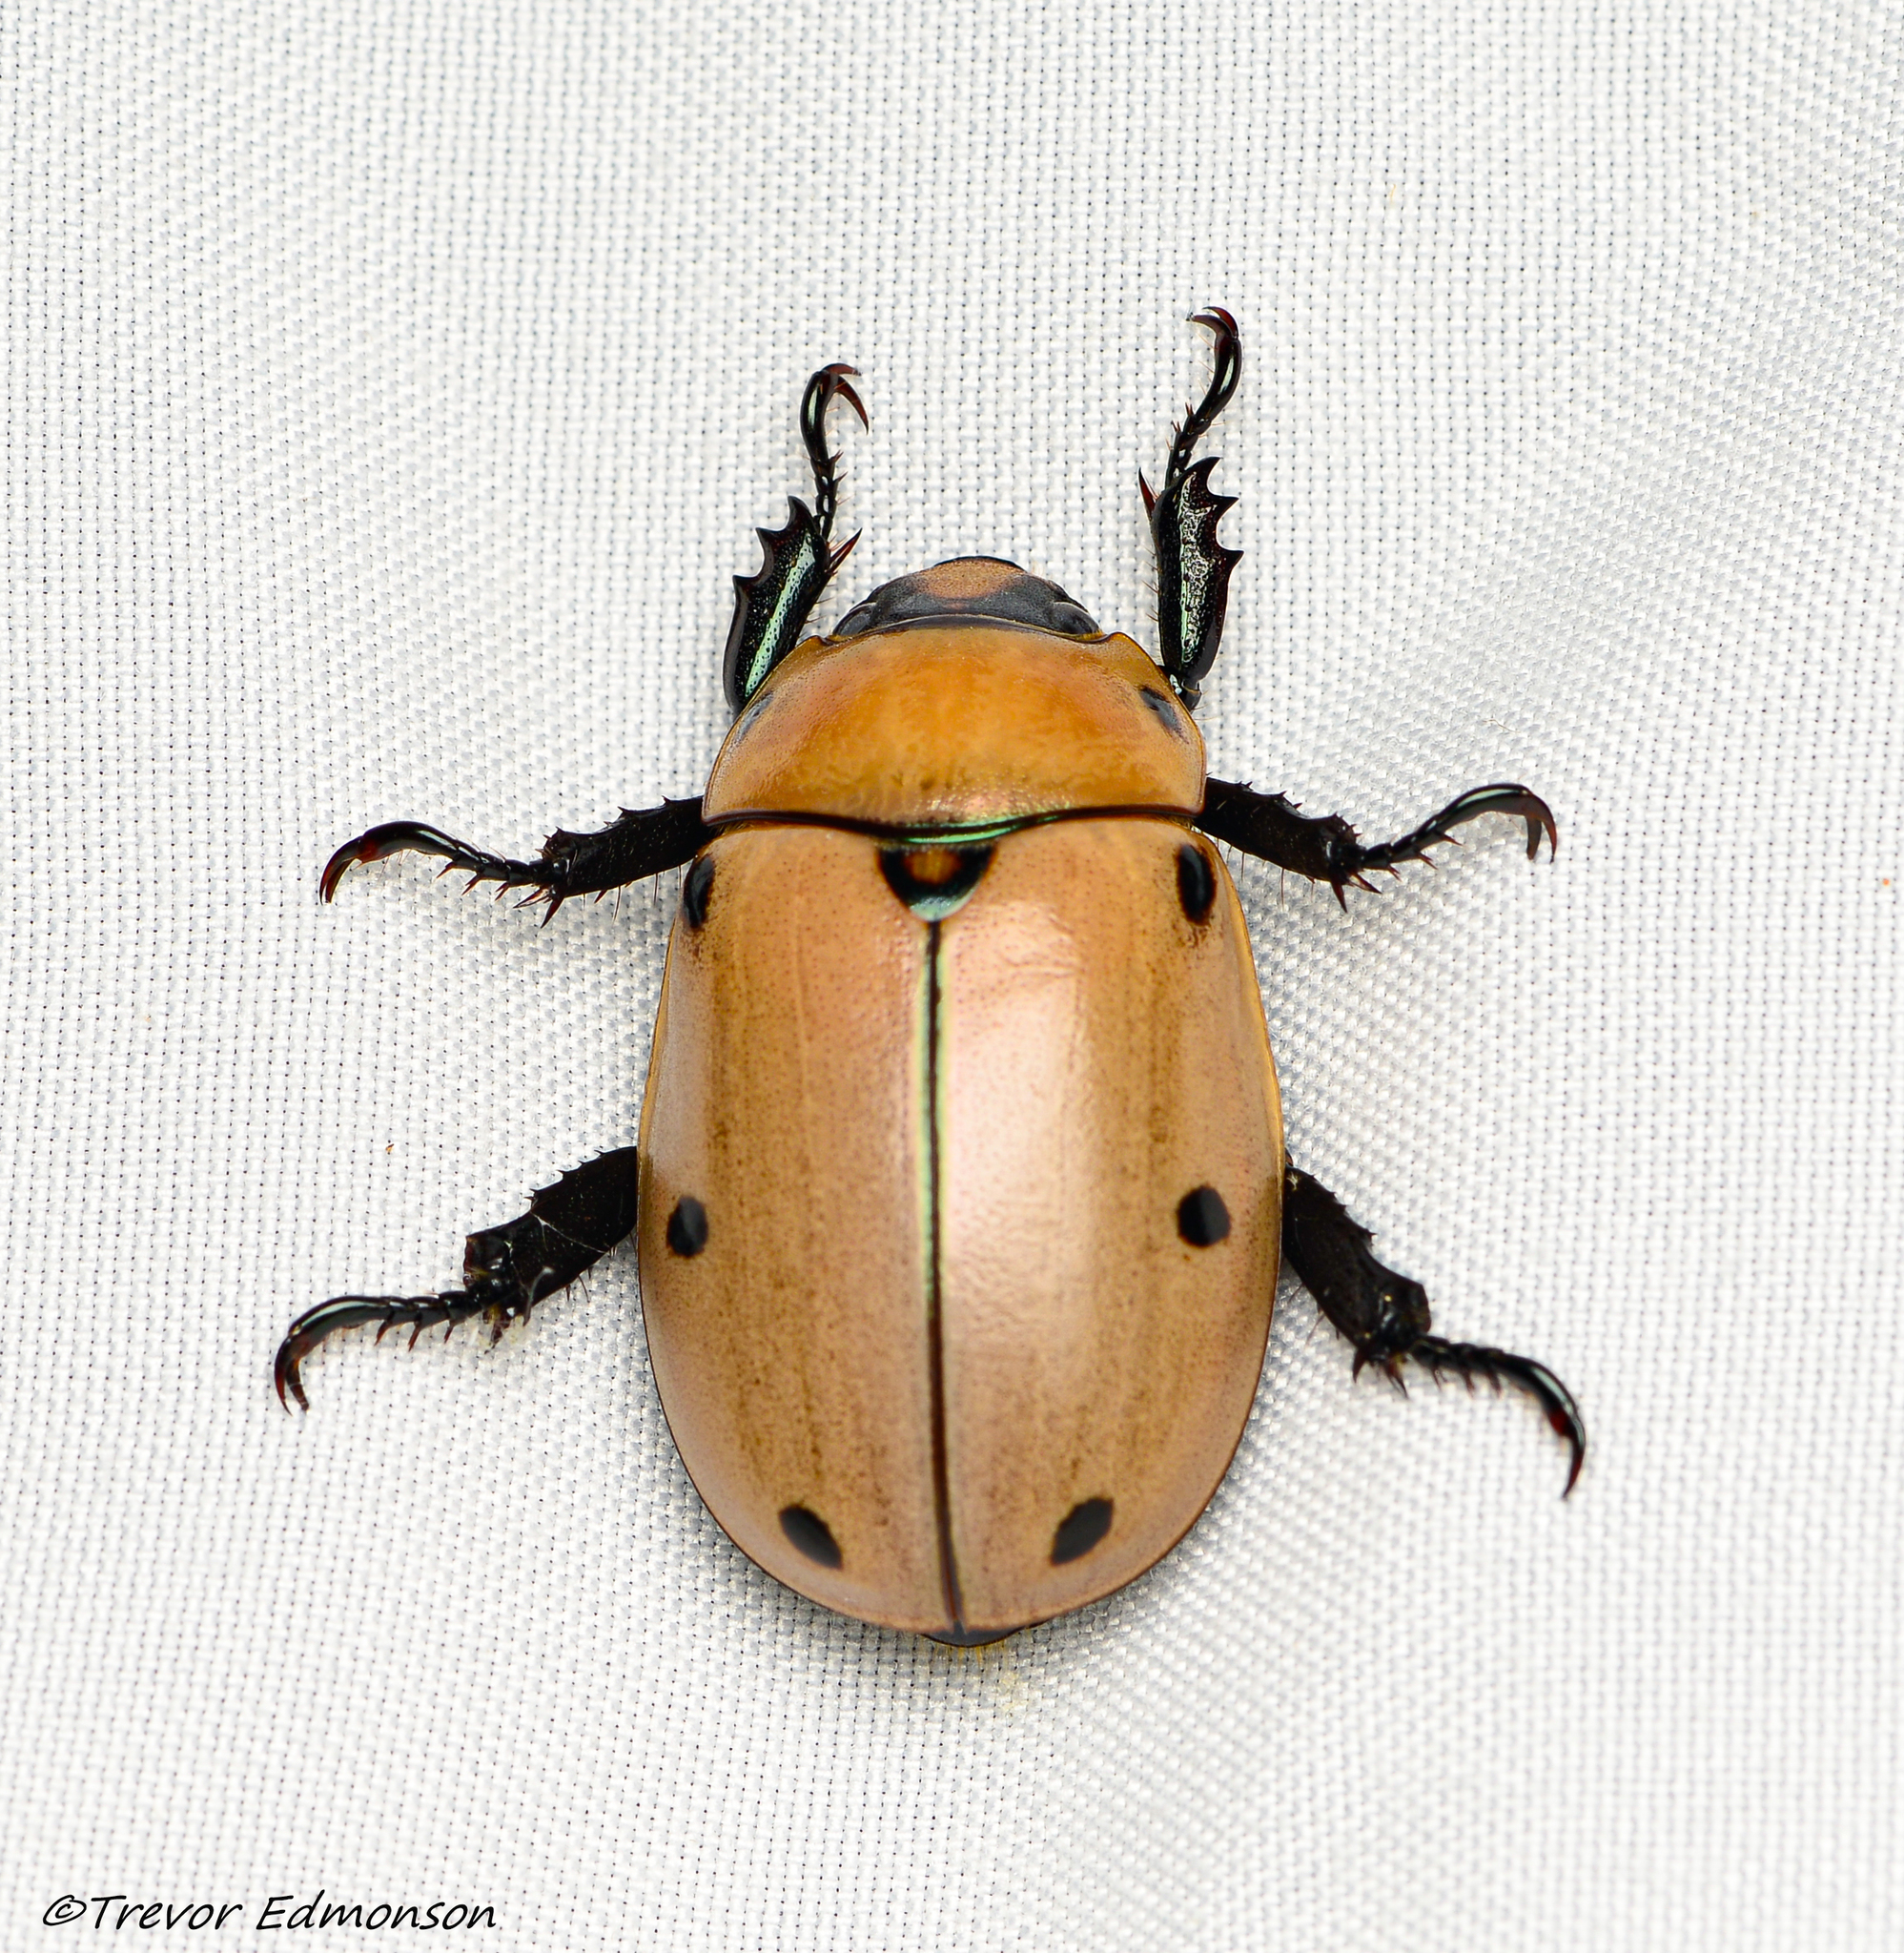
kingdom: Animalia
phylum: Arthropoda
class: Insecta
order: Coleoptera
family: Scarabaeidae
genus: Pelidnota
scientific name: Pelidnota punctata
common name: Grapevine beetle
